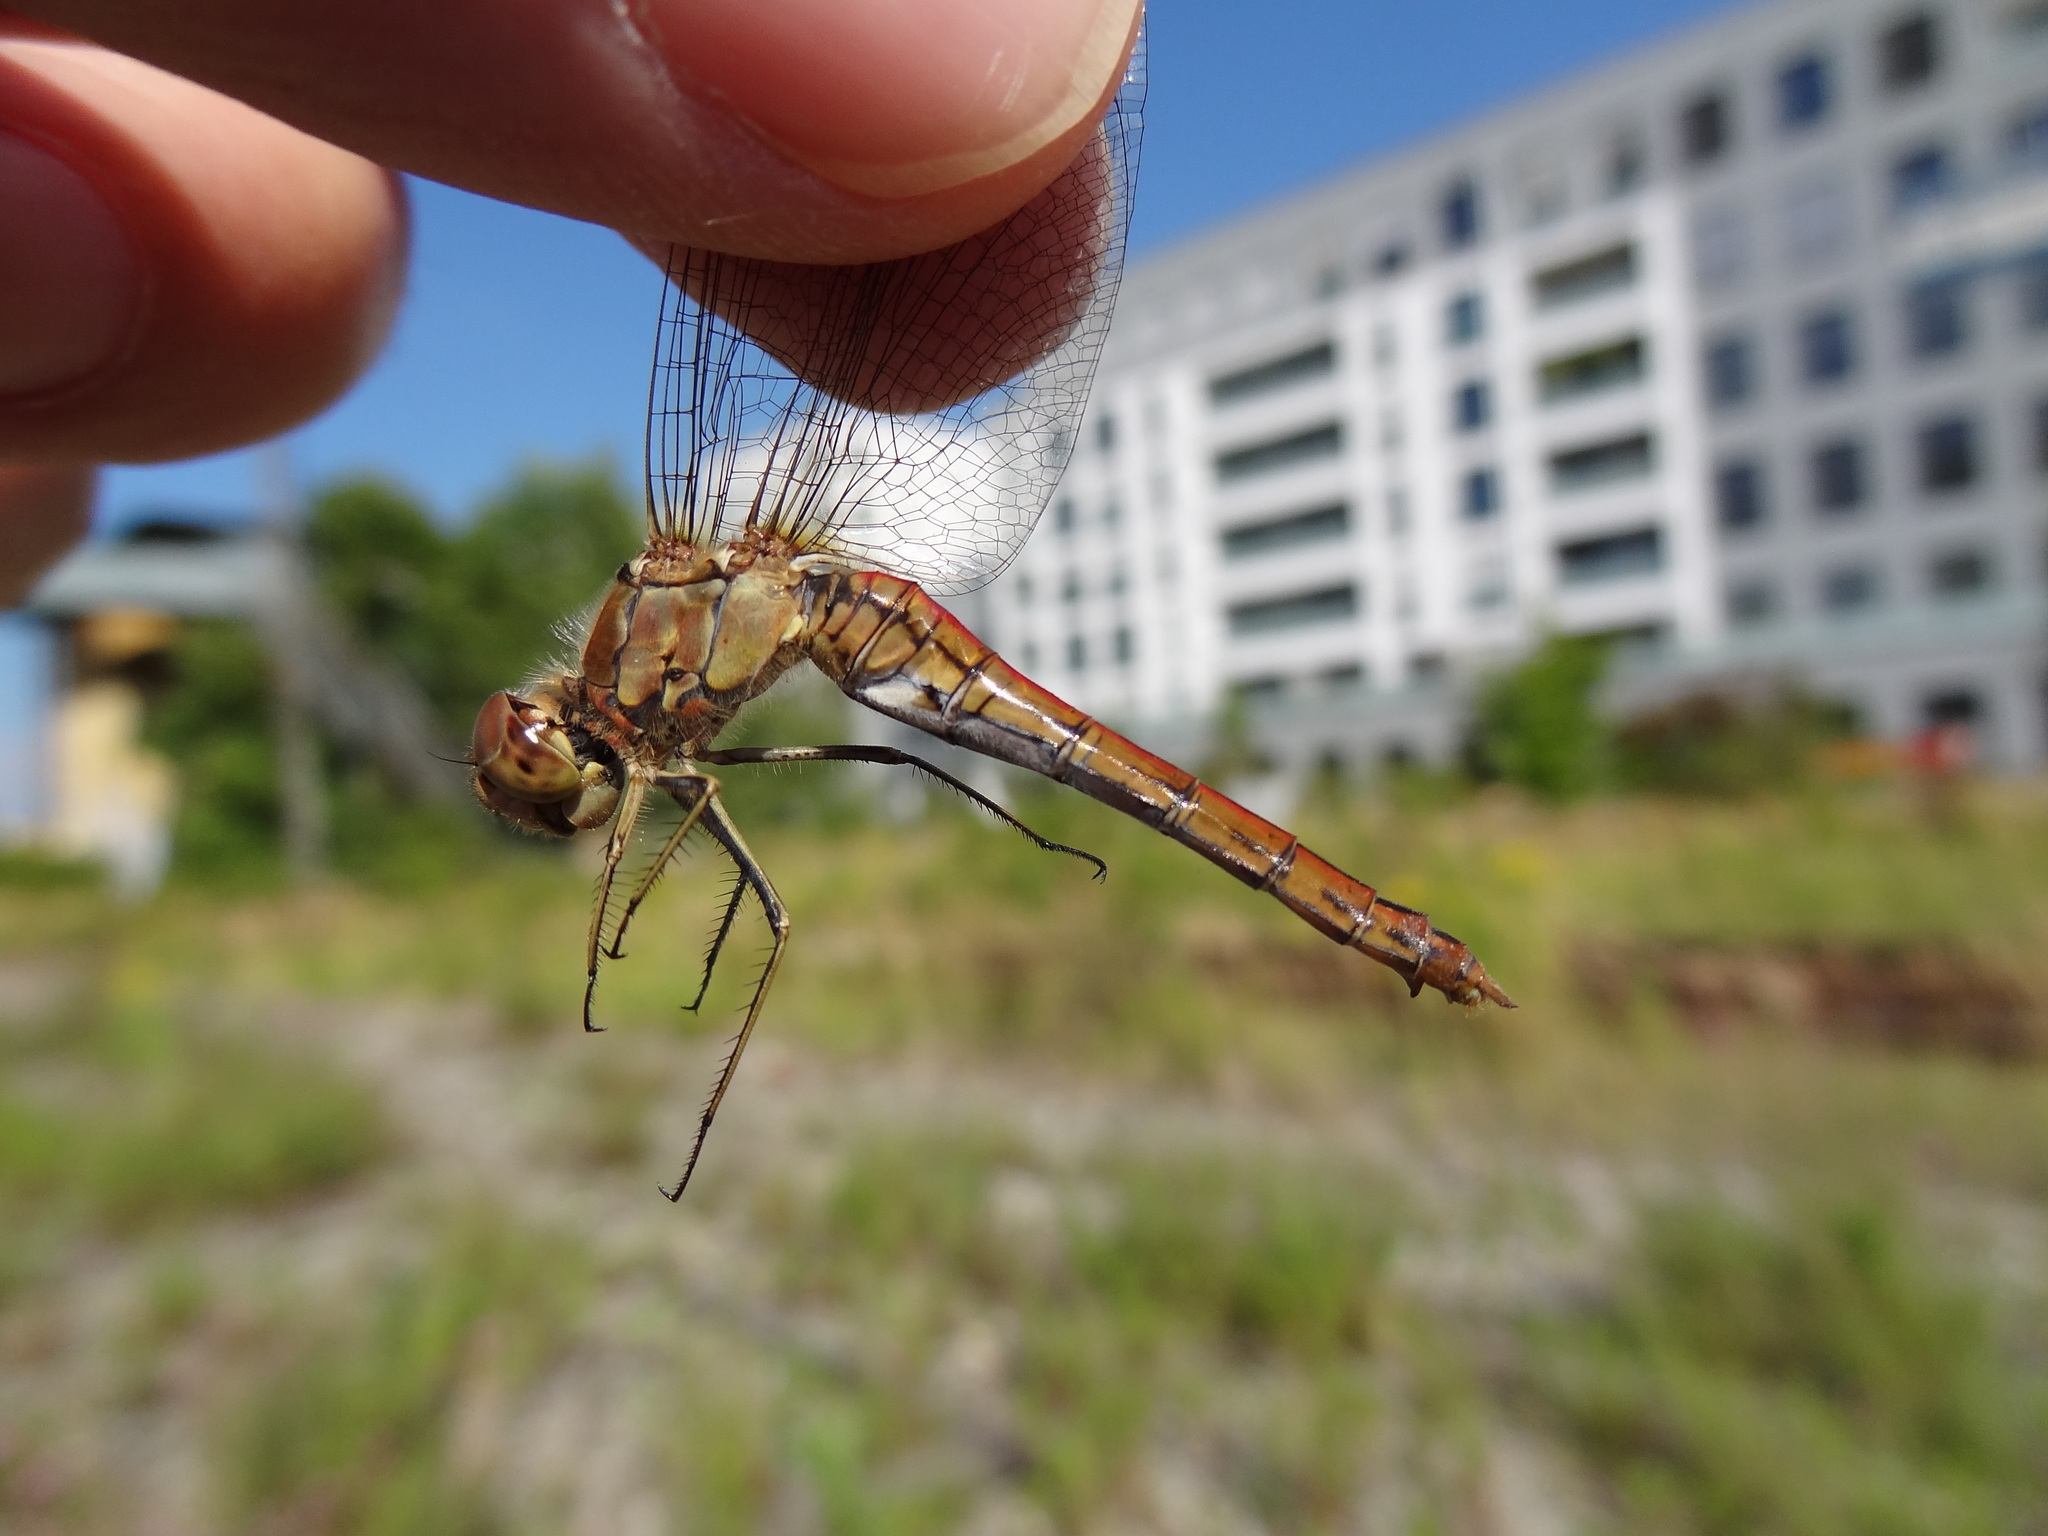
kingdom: Animalia
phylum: Arthropoda
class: Insecta
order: Odonata
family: Libellulidae
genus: Sympetrum
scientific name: Sympetrum vulgatum
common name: Vagrant darter
